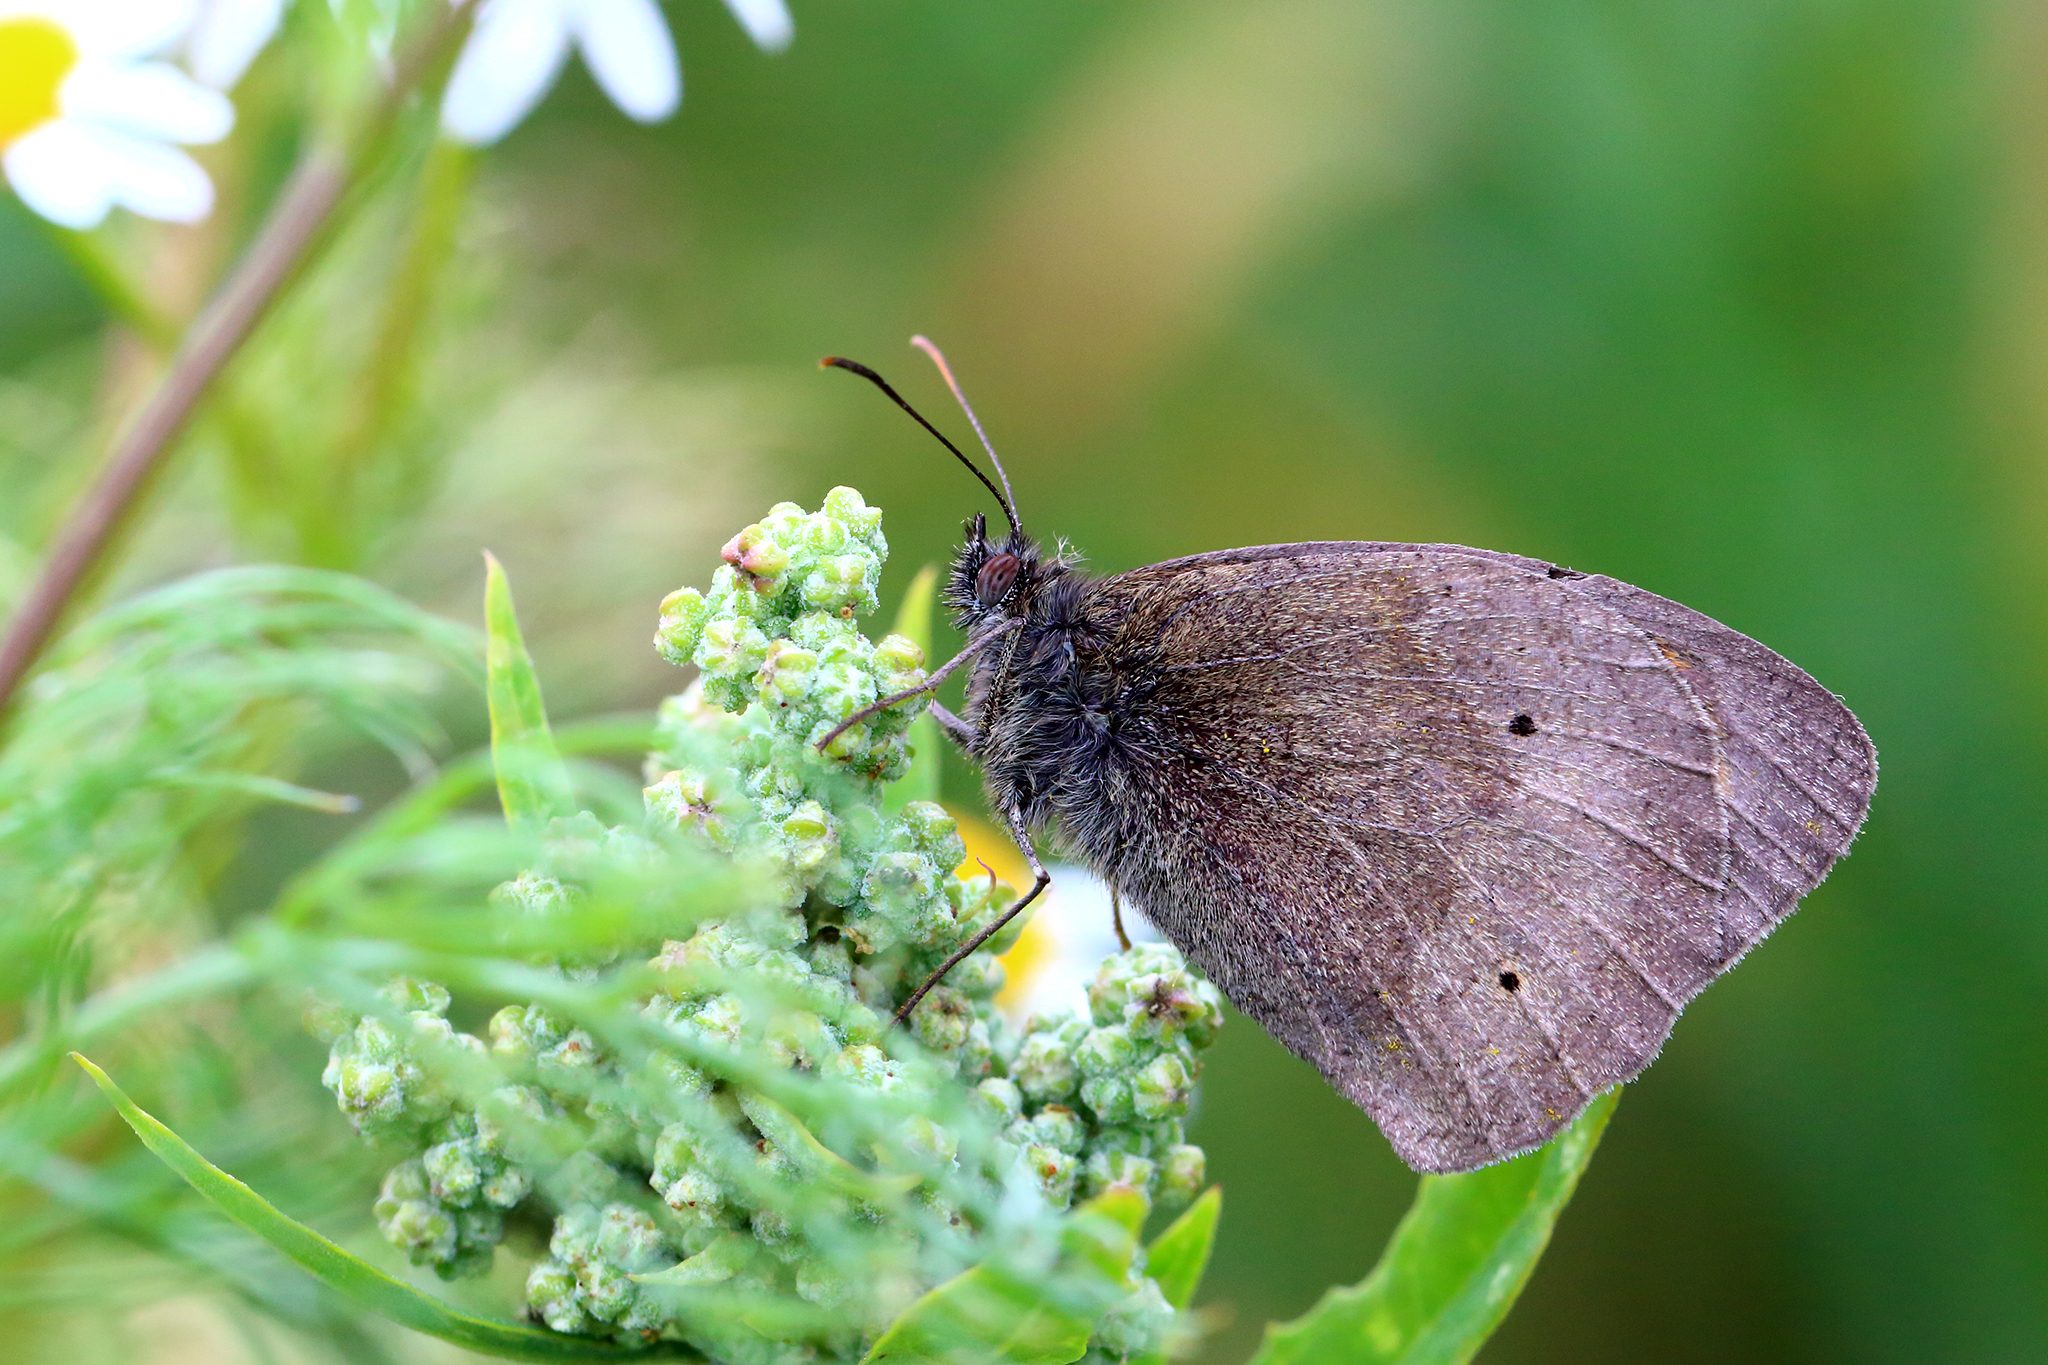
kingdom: Animalia
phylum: Arthropoda
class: Insecta
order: Lepidoptera
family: Nymphalidae
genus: Maniola
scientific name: Maniola jurtina
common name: Meadow brown
